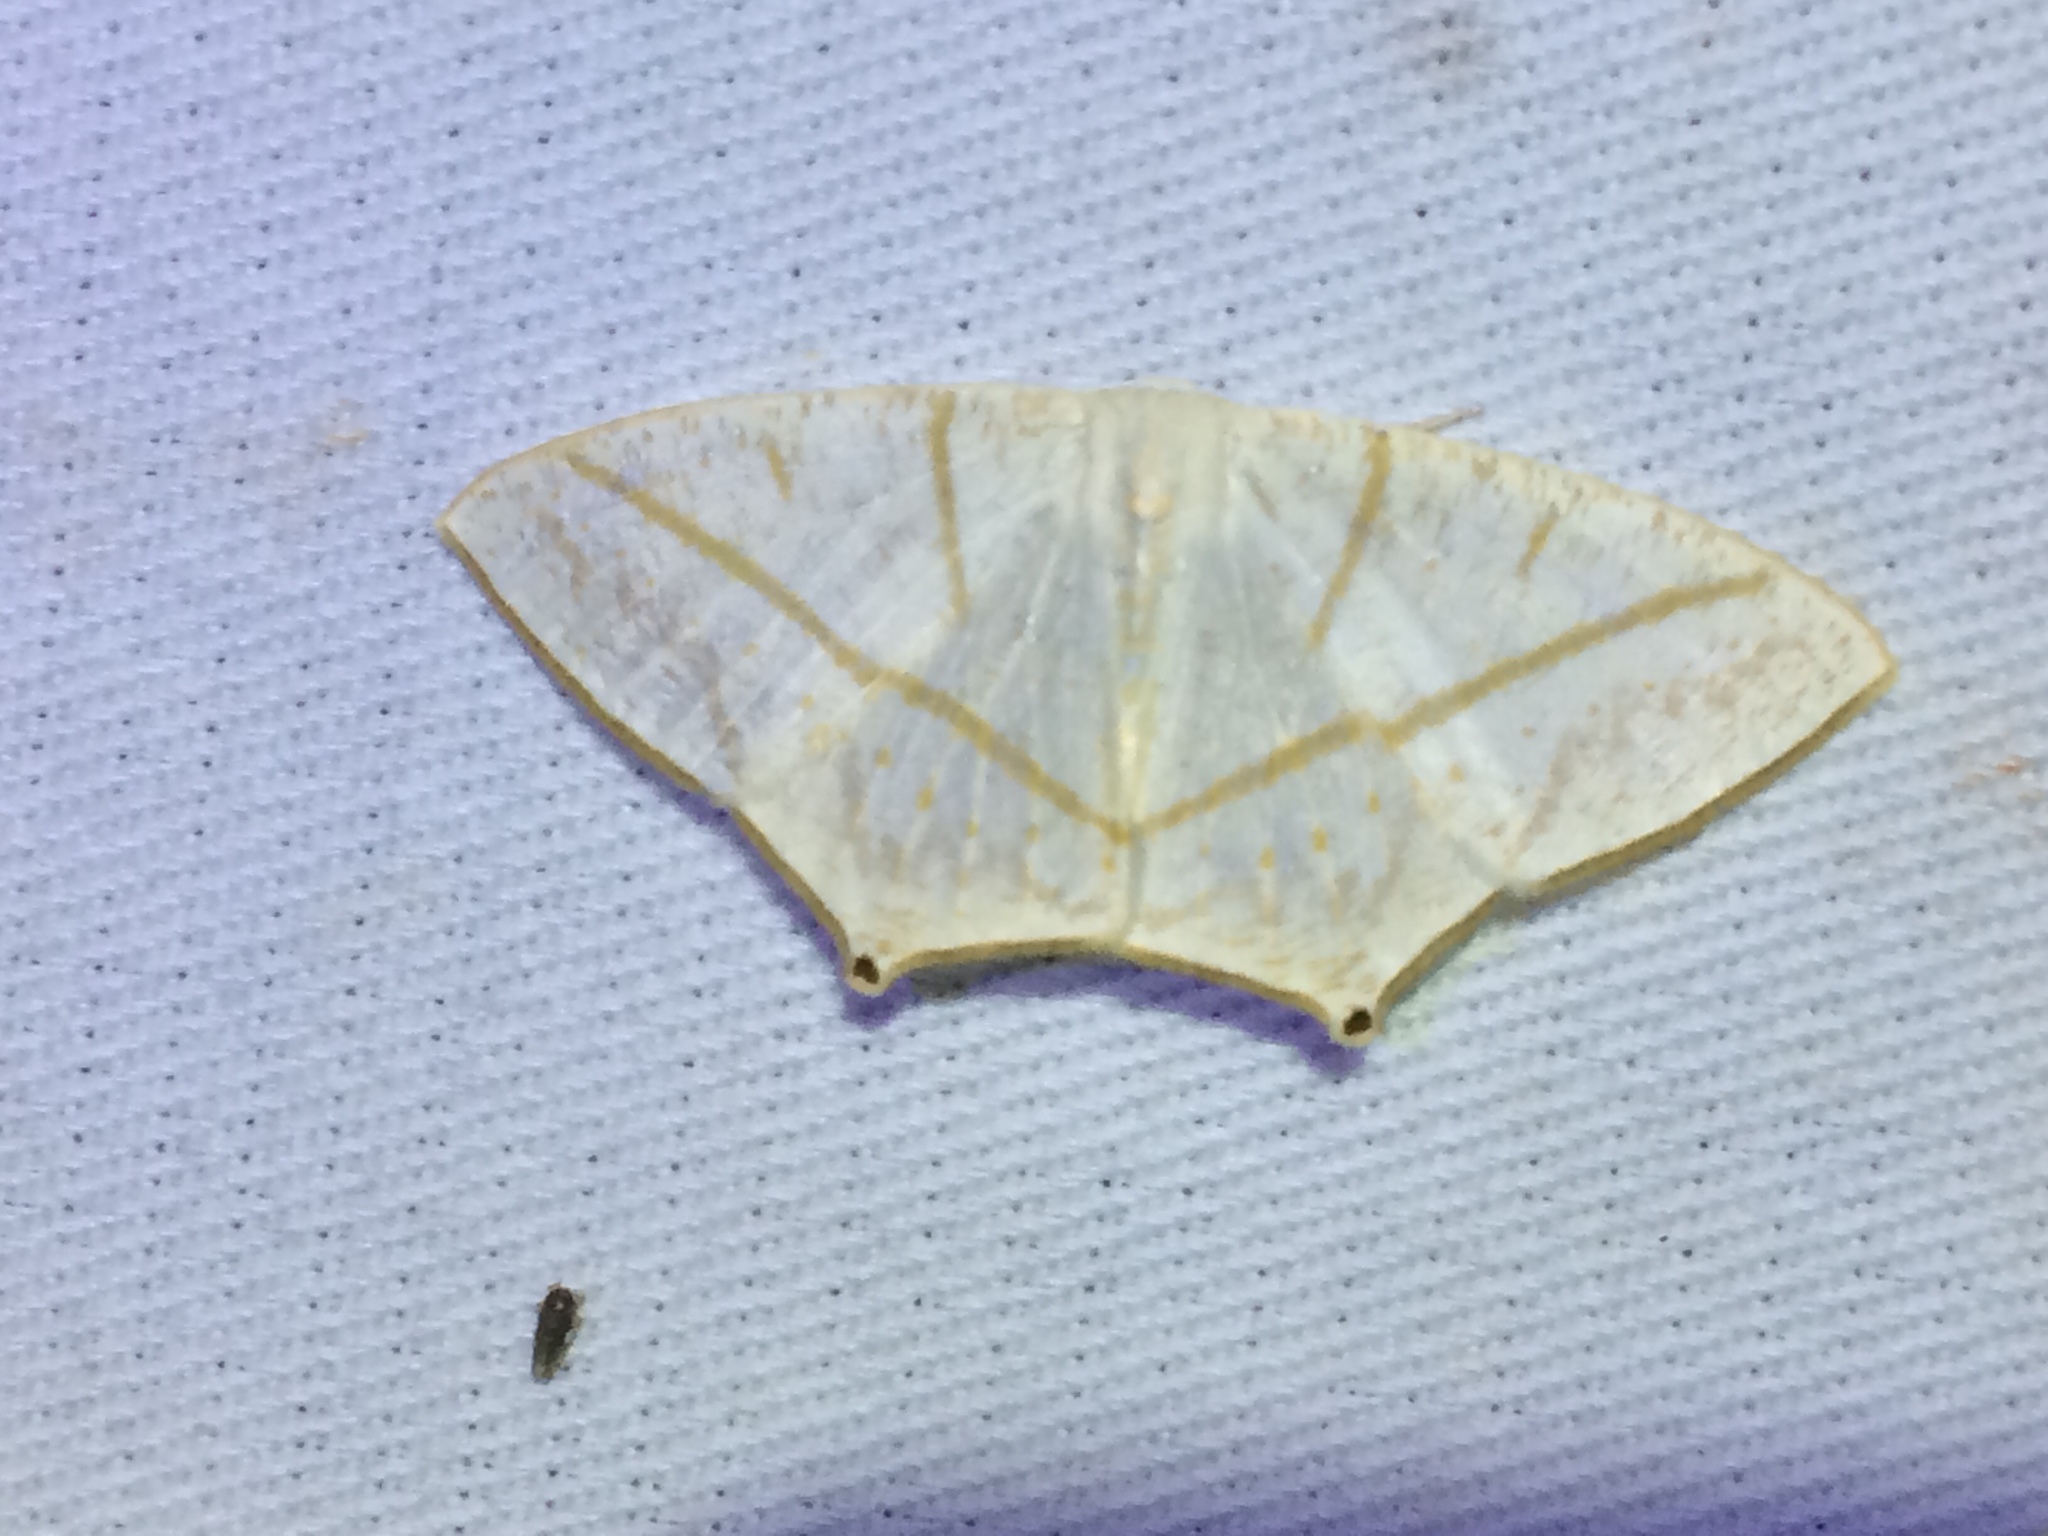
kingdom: Animalia
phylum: Arthropoda
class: Insecta
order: Lepidoptera
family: Geometridae
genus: Brachurapteryx
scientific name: Brachurapteryx tesserata
